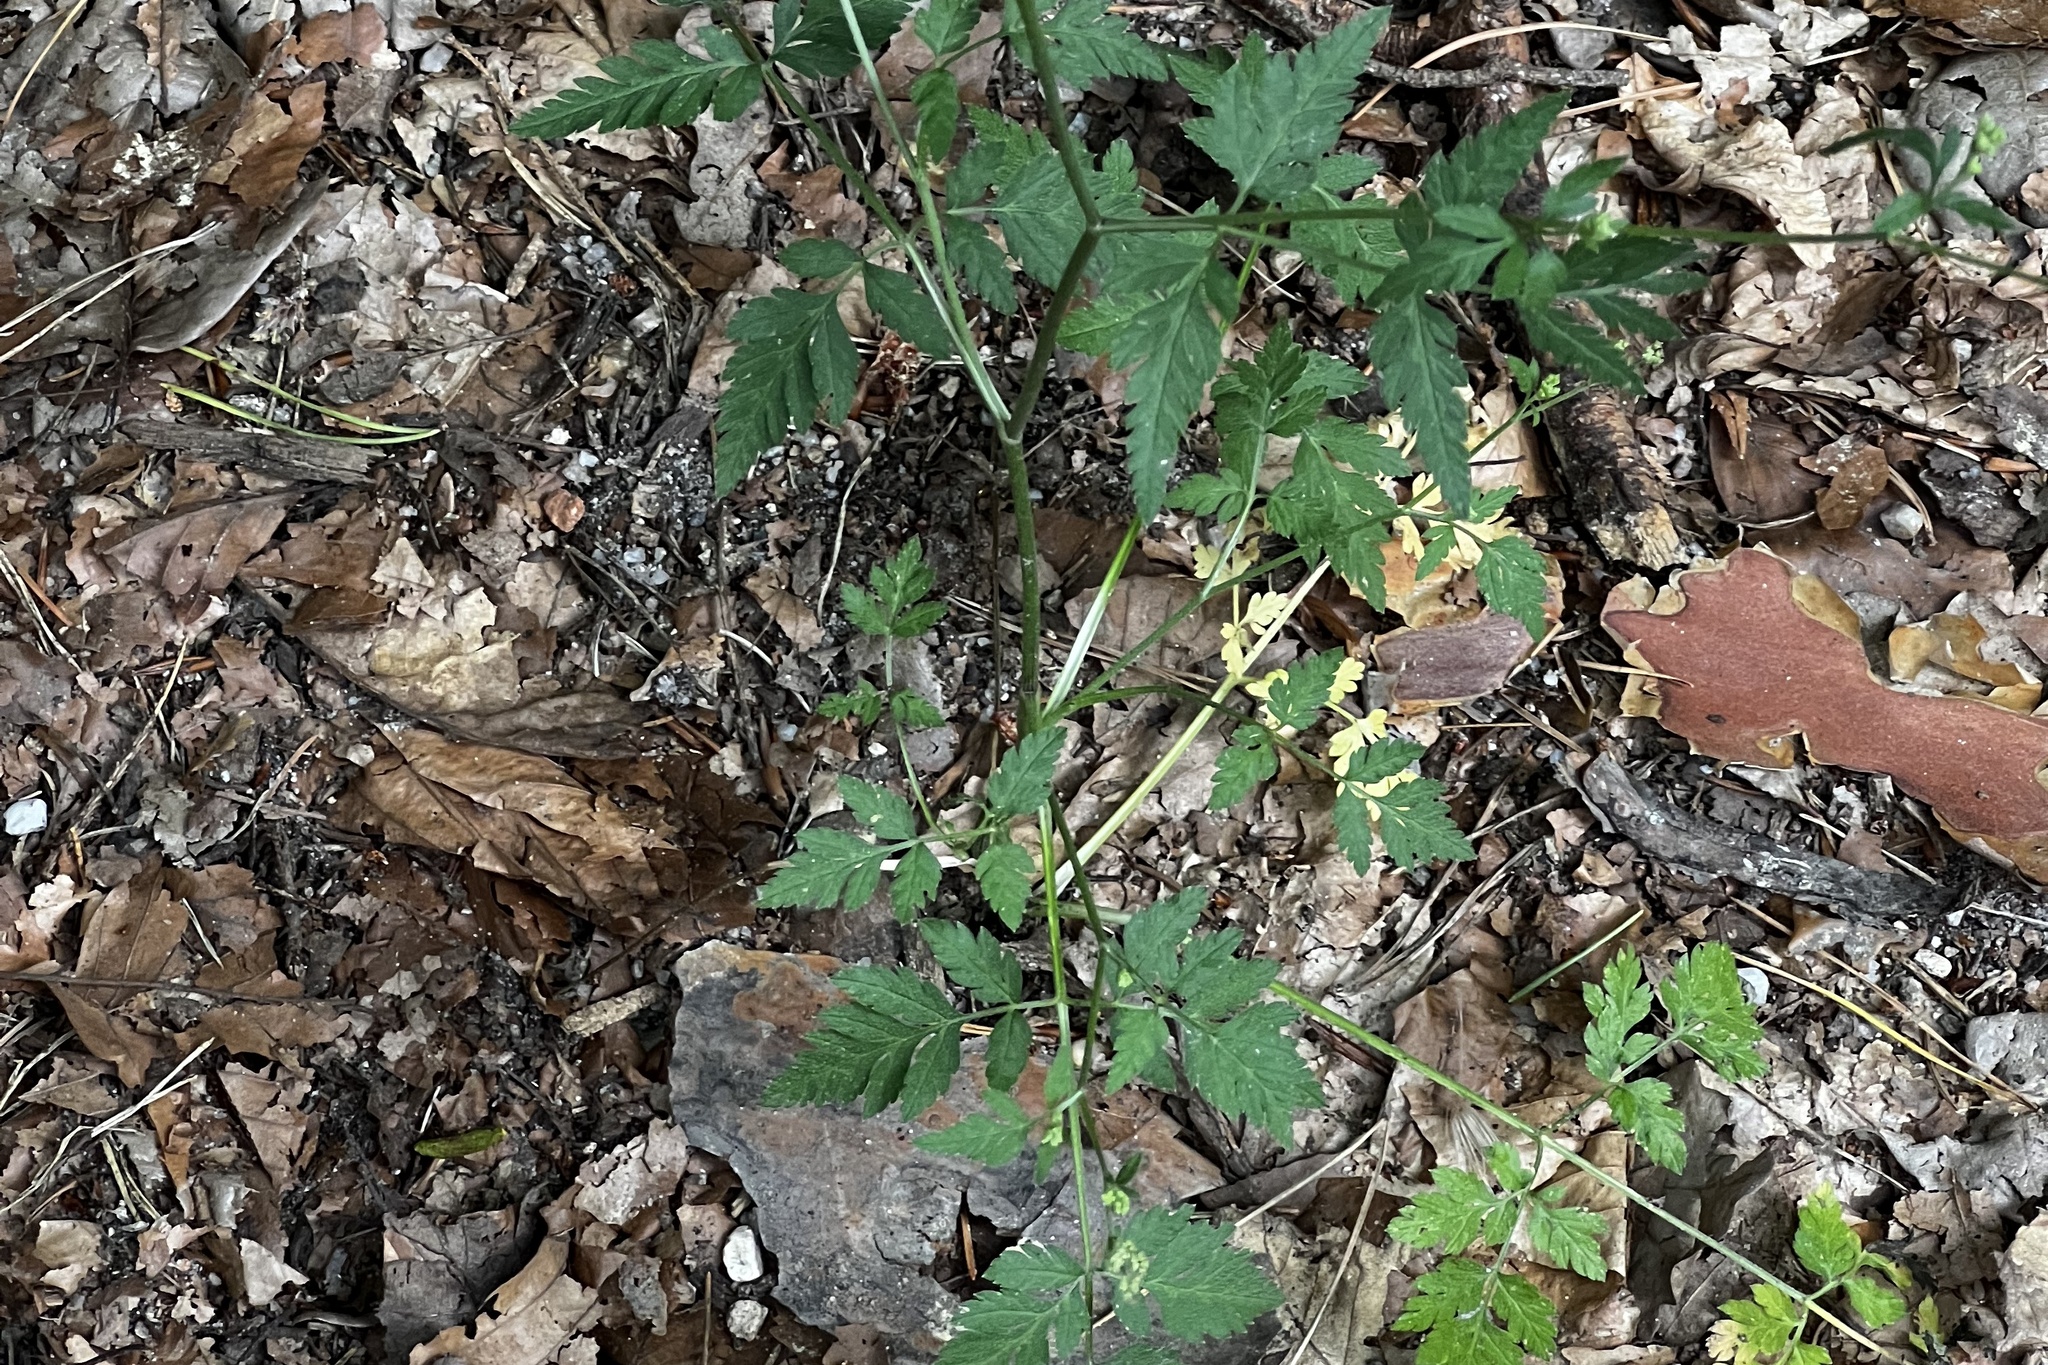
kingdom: Plantae
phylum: Tracheophyta
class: Magnoliopsida
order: Apiales
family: Apiaceae
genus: Torilis
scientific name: Torilis japonica
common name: Upright hedge-parsley
